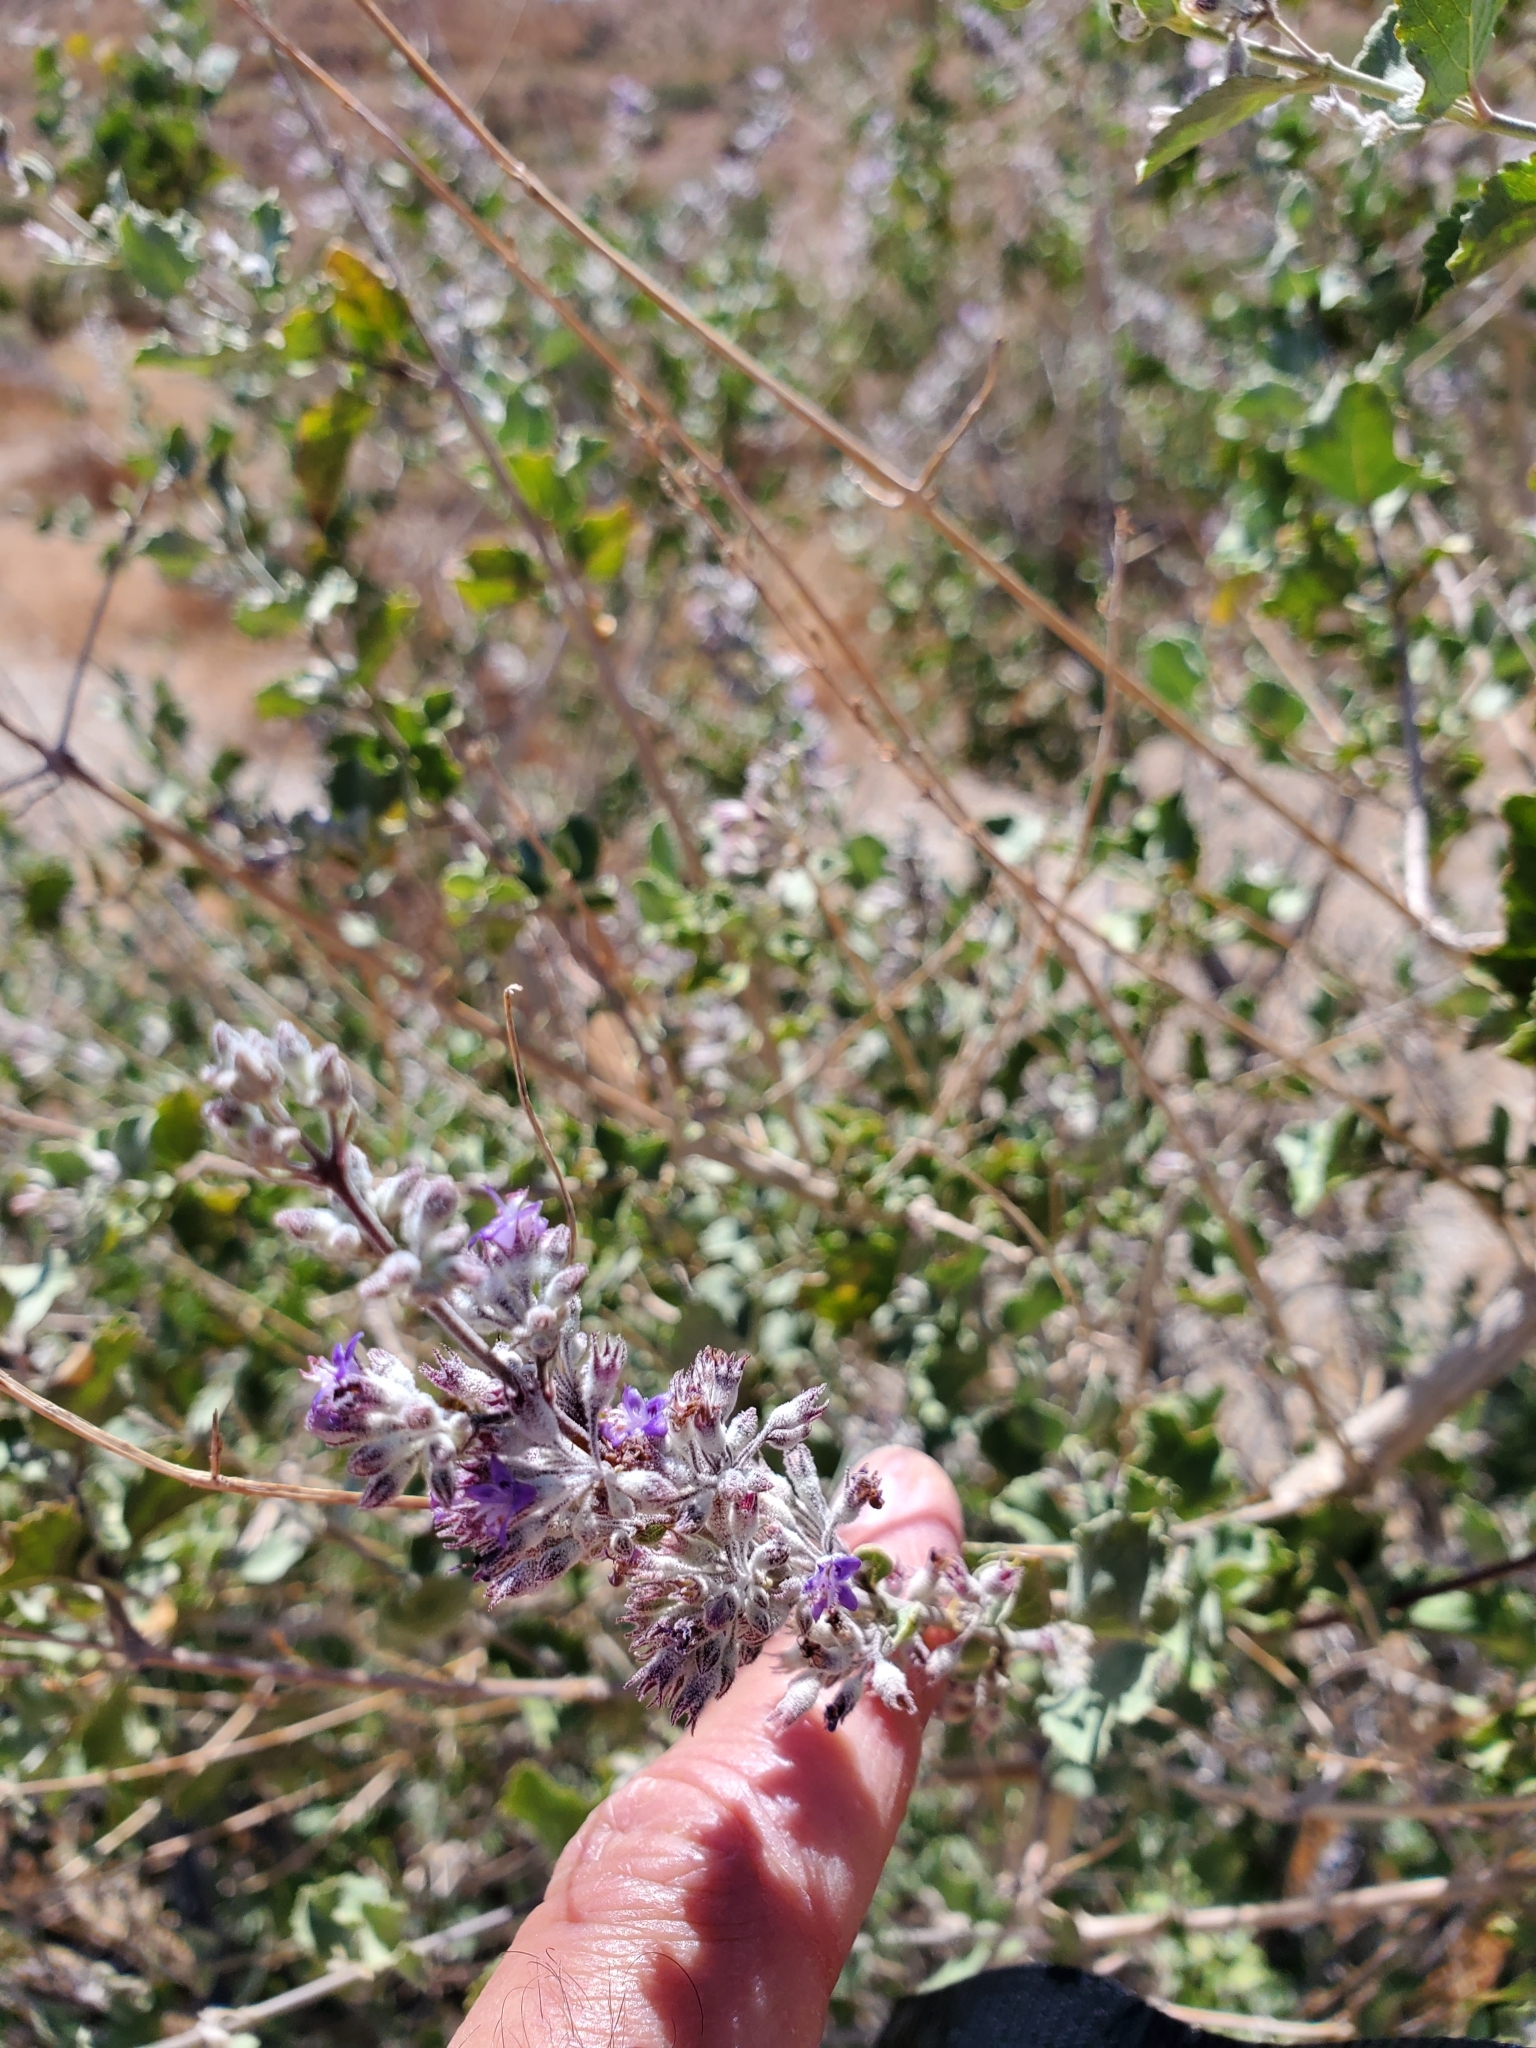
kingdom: Plantae
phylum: Tracheophyta
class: Magnoliopsida
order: Lamiales
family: Lamiaceae
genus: Condea
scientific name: Condea emoryi
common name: Chia
